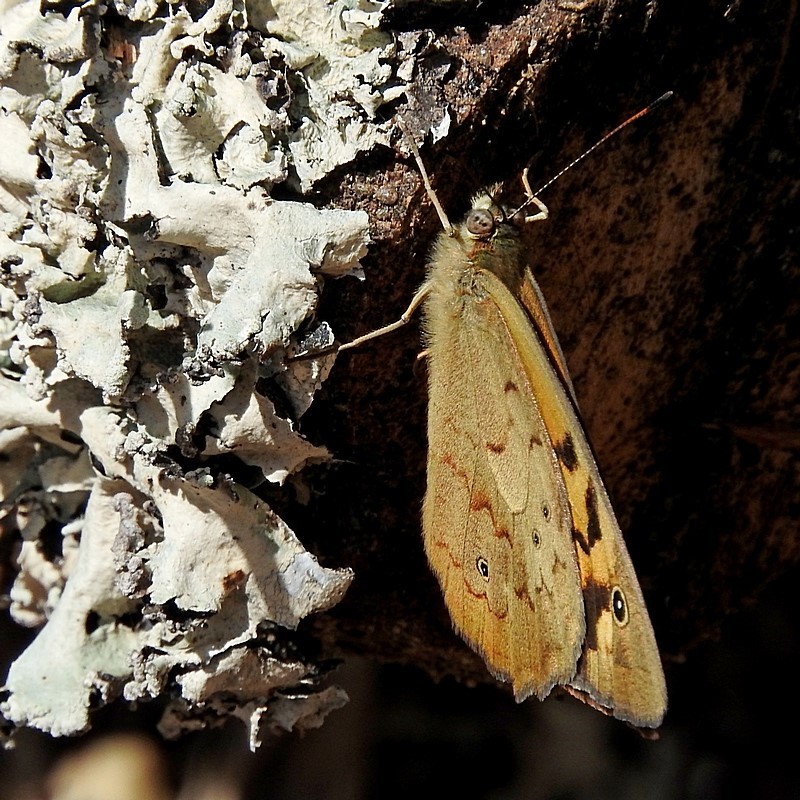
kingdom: Animalia
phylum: Arthropoda
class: Insecta
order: Lepidoptera
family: Nymphalidae
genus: Heteronympha
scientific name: Heteronympha merope
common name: Common brown
